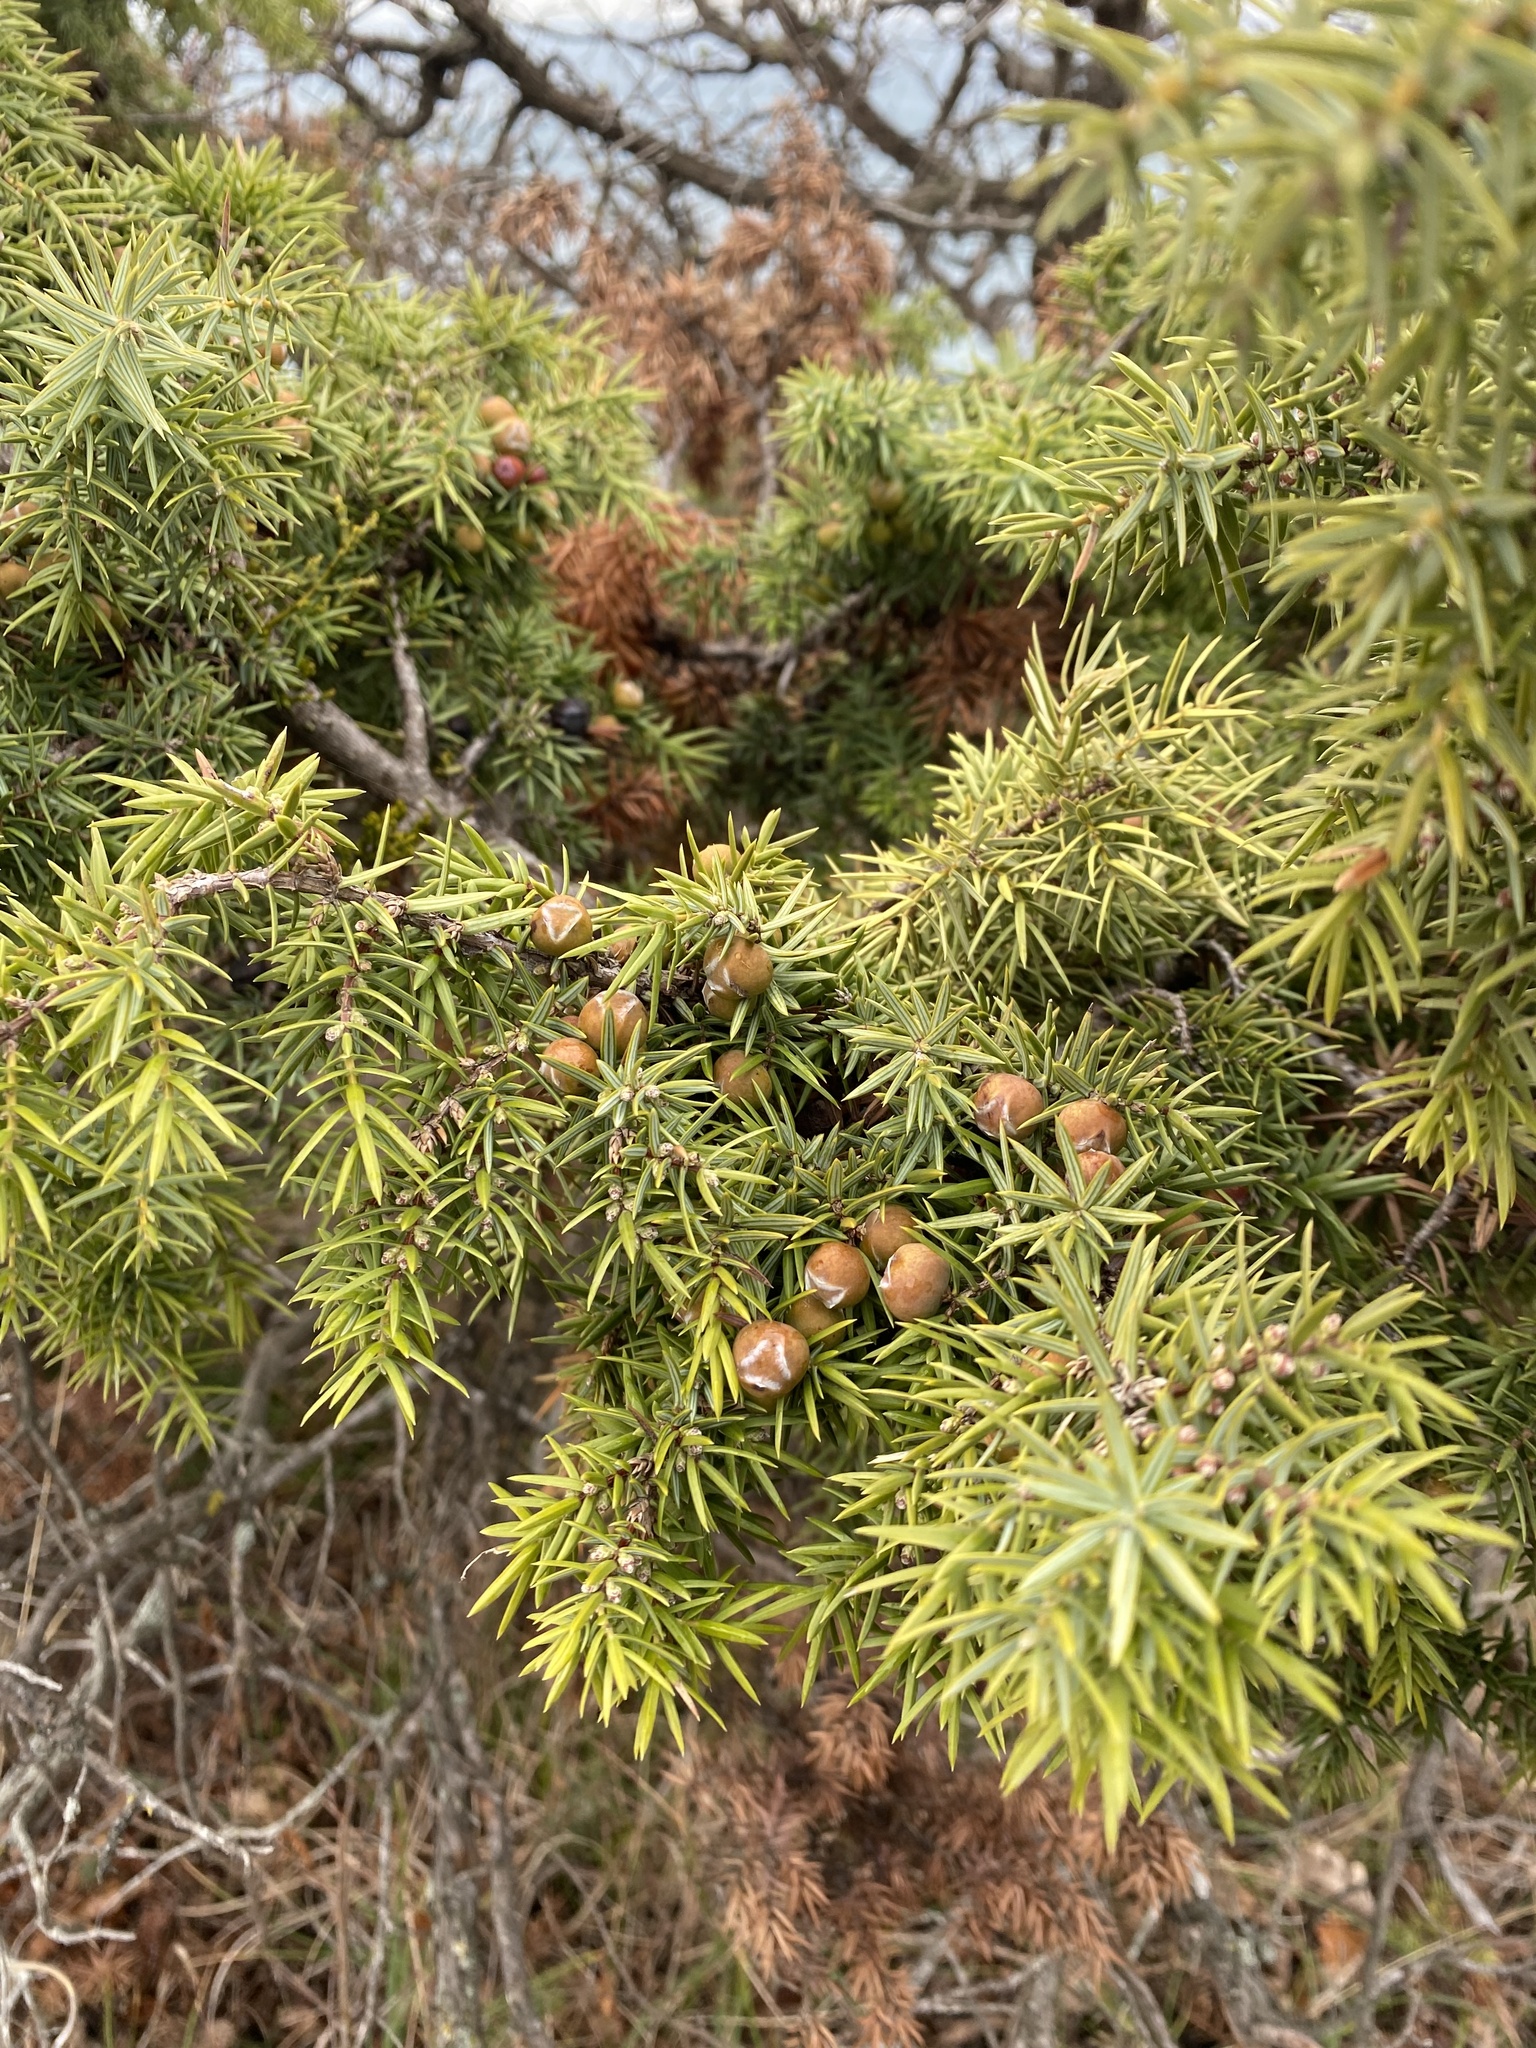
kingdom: Plantae
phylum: Tracheophyta
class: Pinopsida
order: Pinales
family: Cupressaceae
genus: Juniperus
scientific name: Juniperus oxycedrus
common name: Prickly juniper
